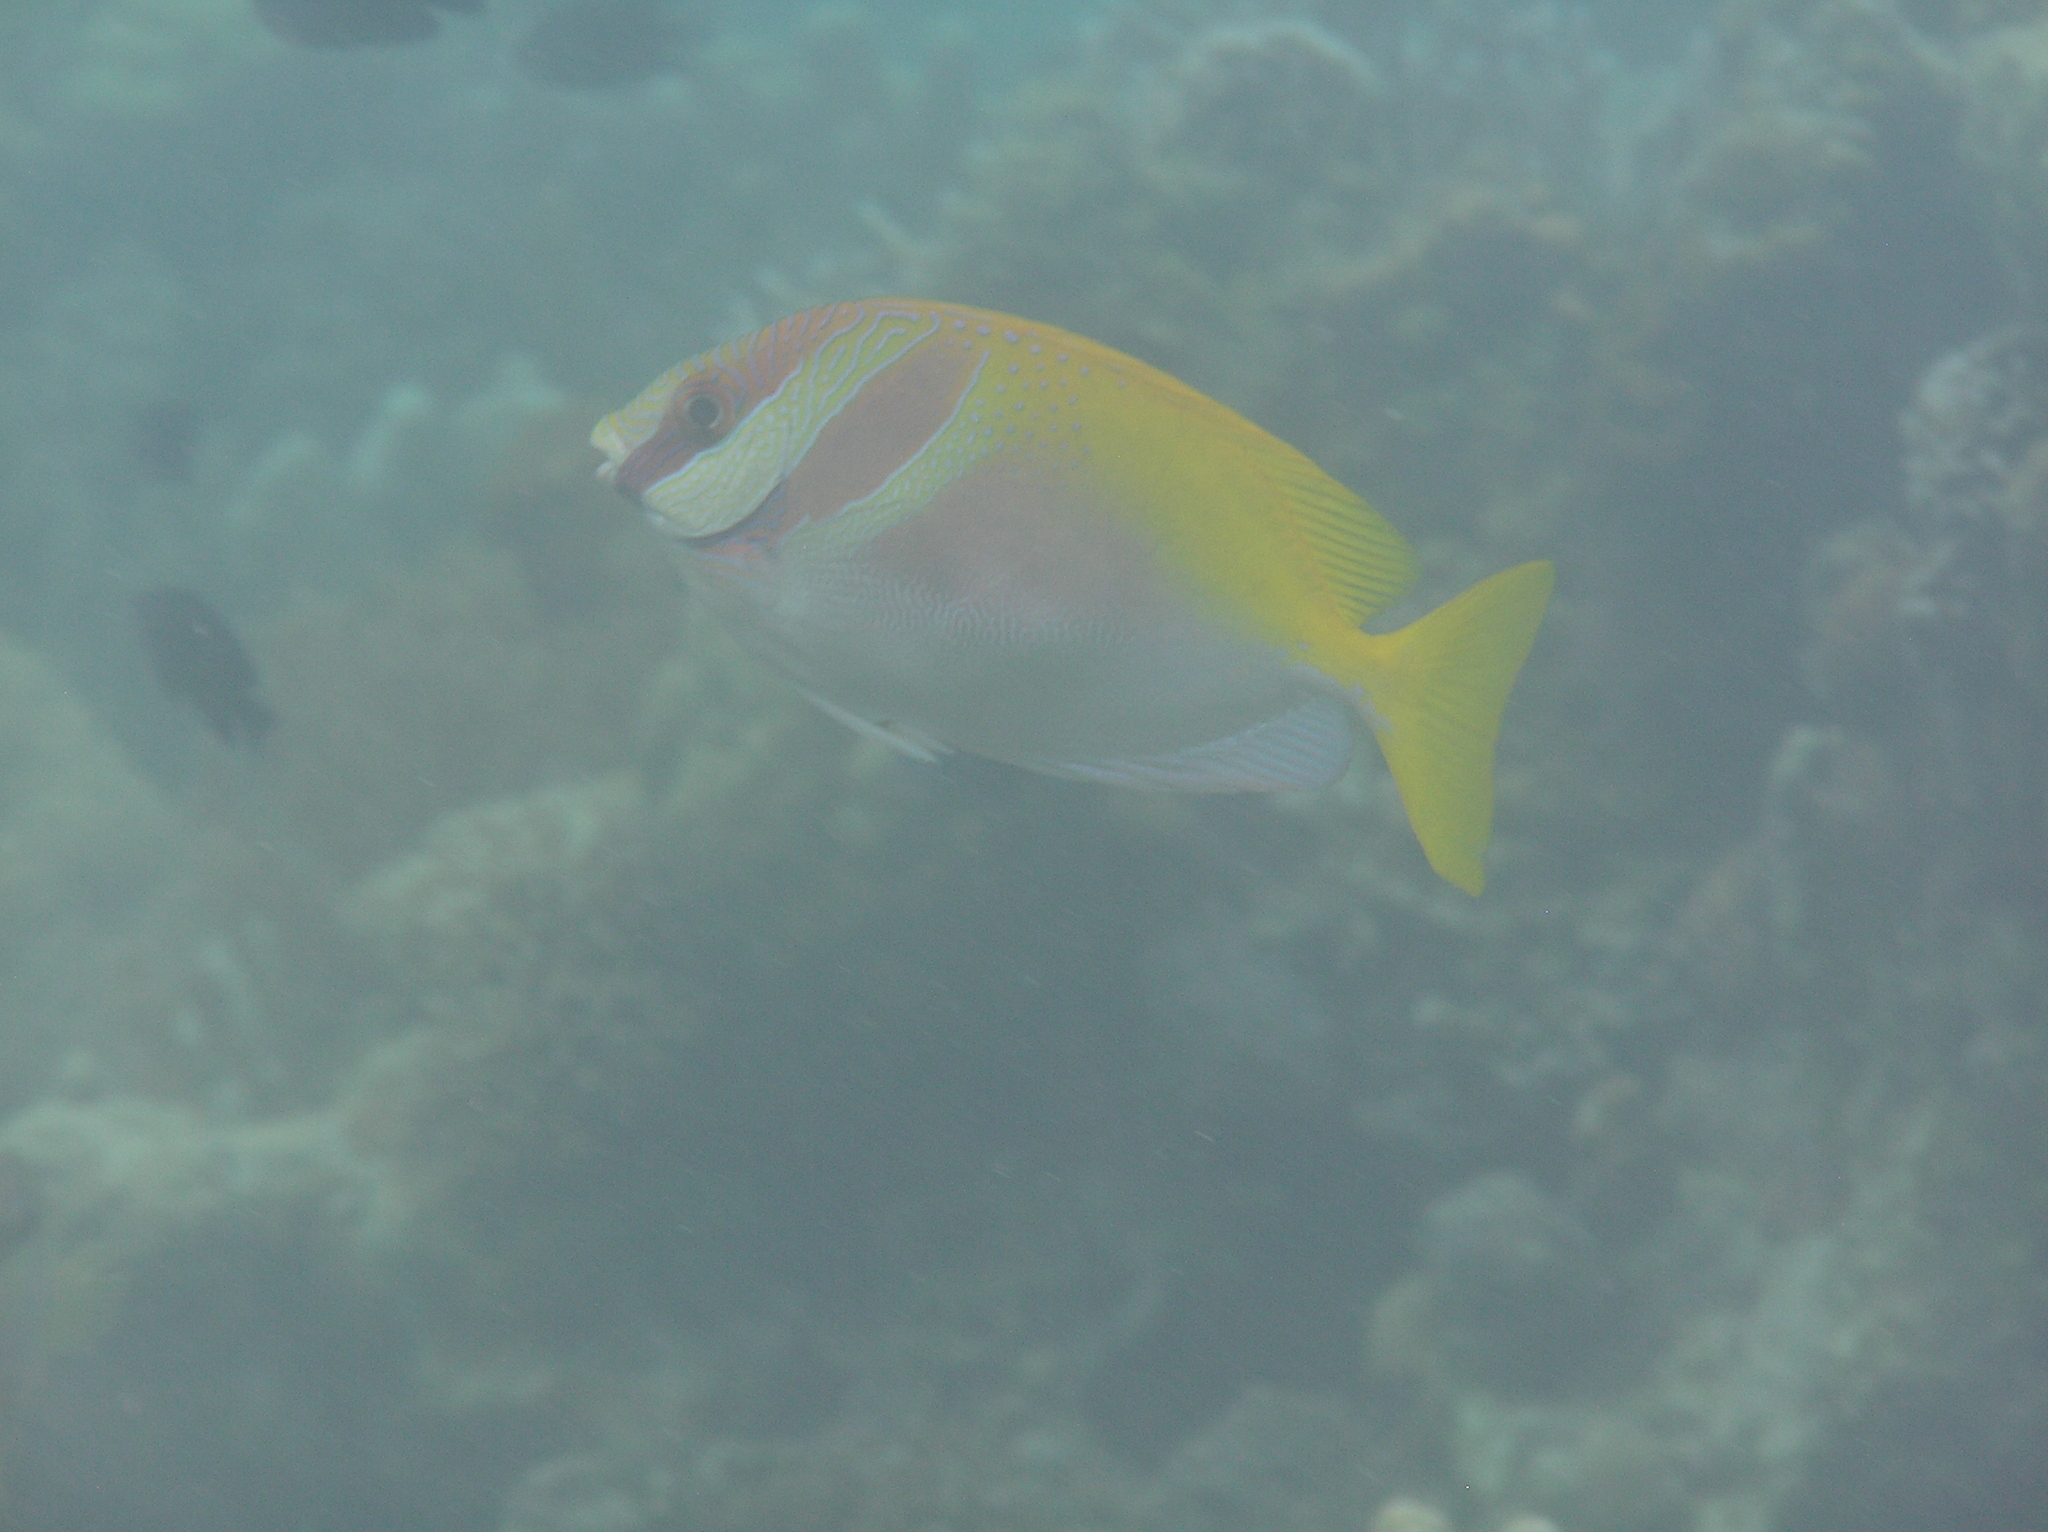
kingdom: Animalia
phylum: Chordata
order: Perciformes
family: Siganidae
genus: Siganus
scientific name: Siganus virgatus
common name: Barhead spinefoot
